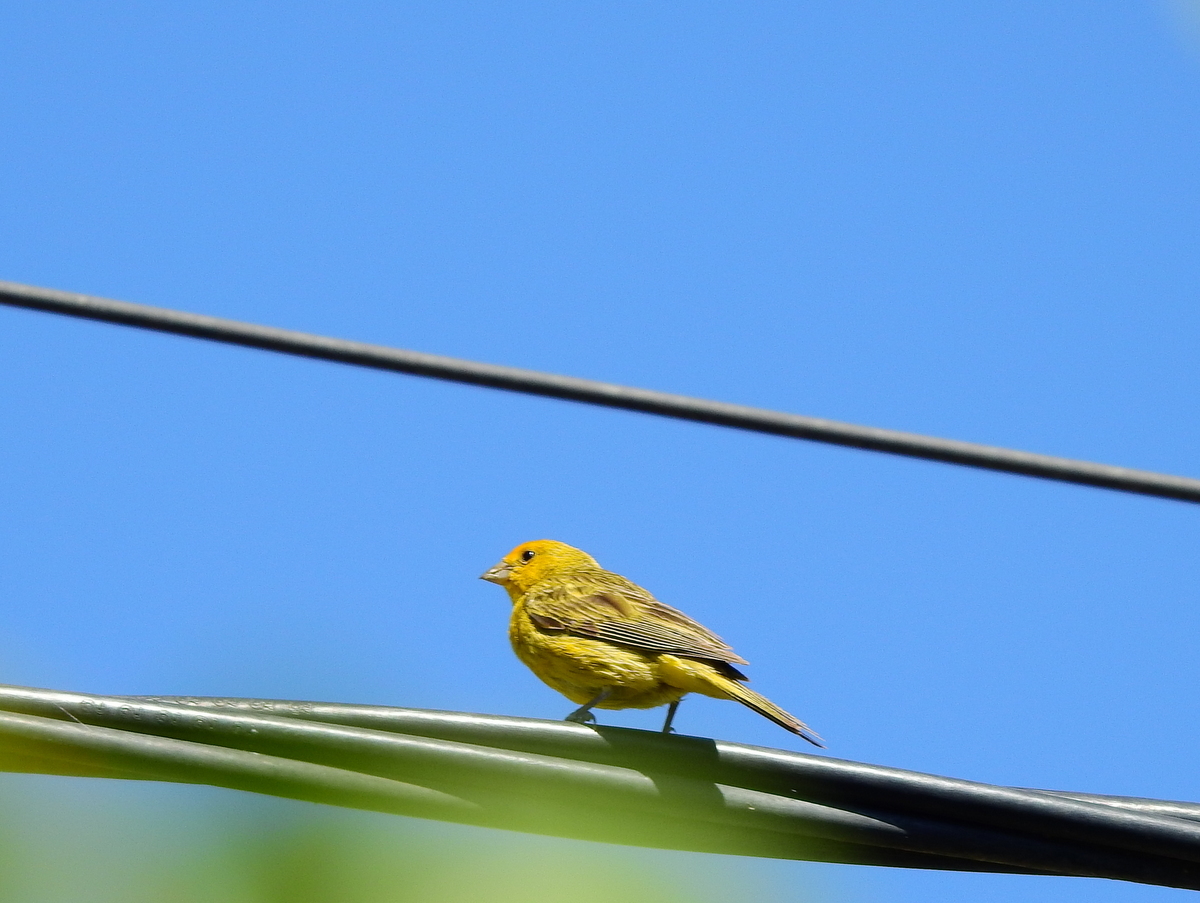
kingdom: Animalia
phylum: Chordata
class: Aves
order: Passeriformes
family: Thraupidae
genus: Sicalis
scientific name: Sicalis flaveola
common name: Saffron finch
